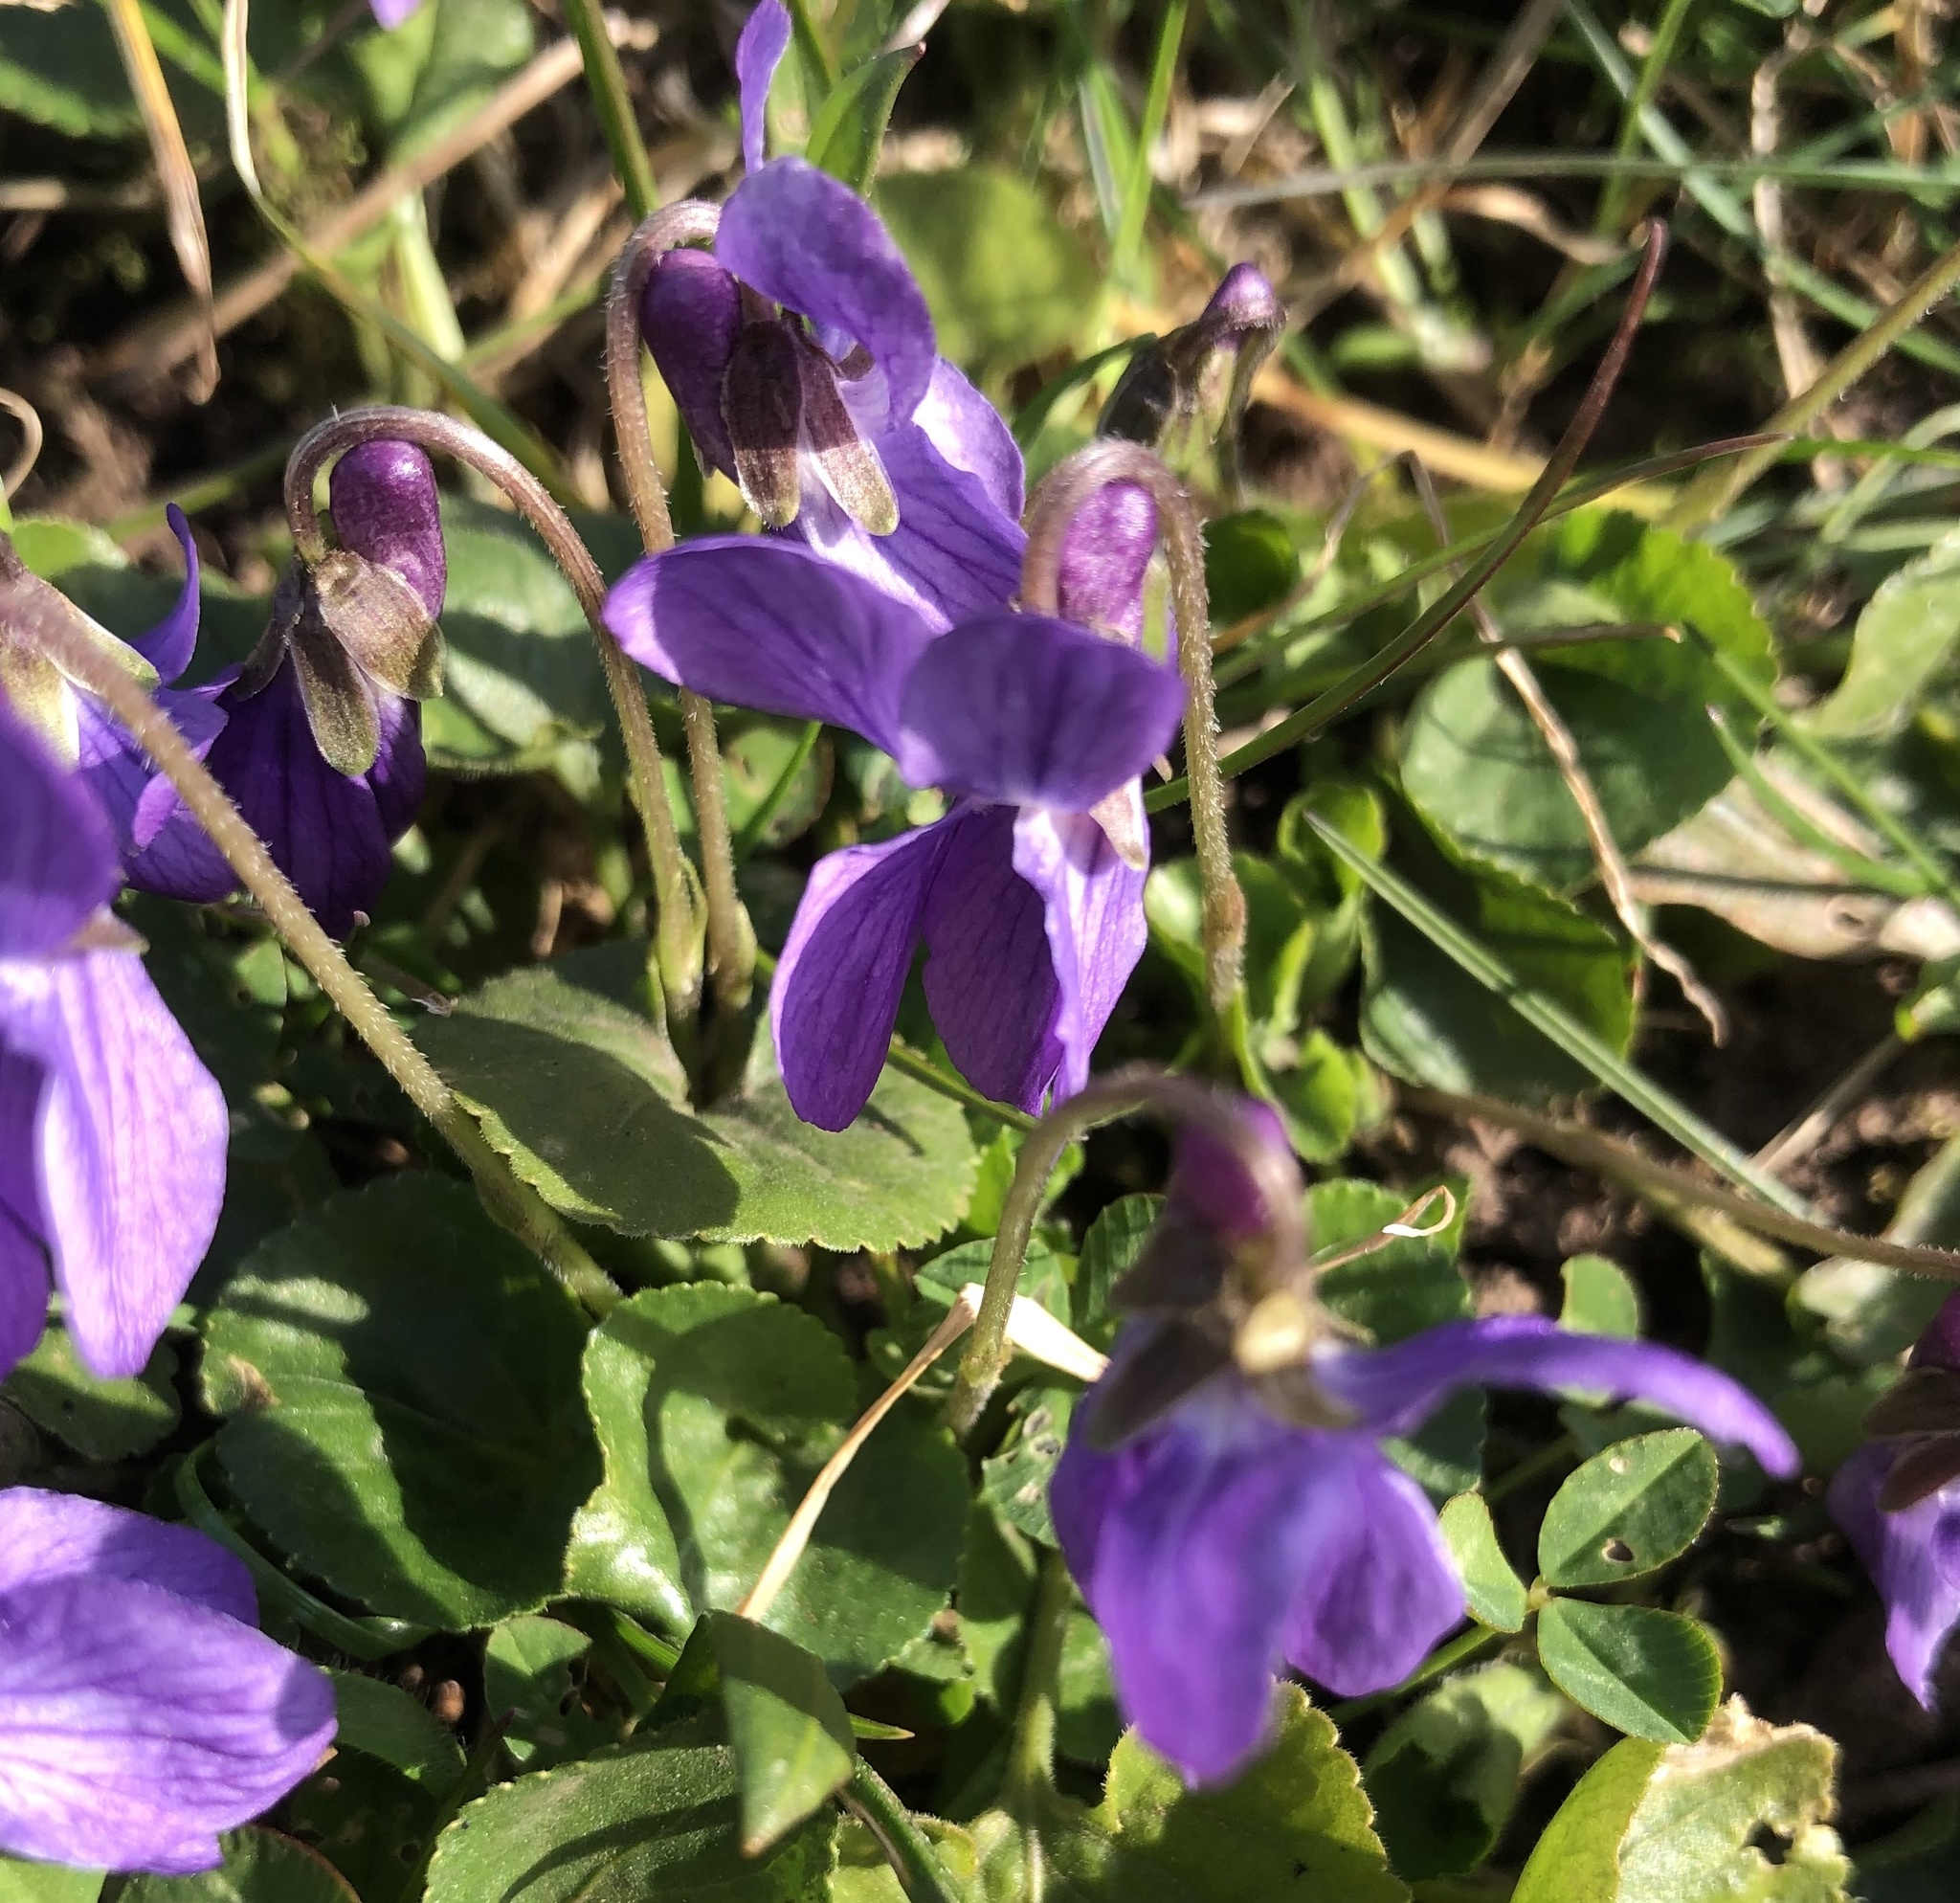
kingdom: Plantae
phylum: Tracheophyta
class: Magnoliopsida
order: Malpighiales
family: Violaceae
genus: Viola
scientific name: Viola odorata
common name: Sweet violet
